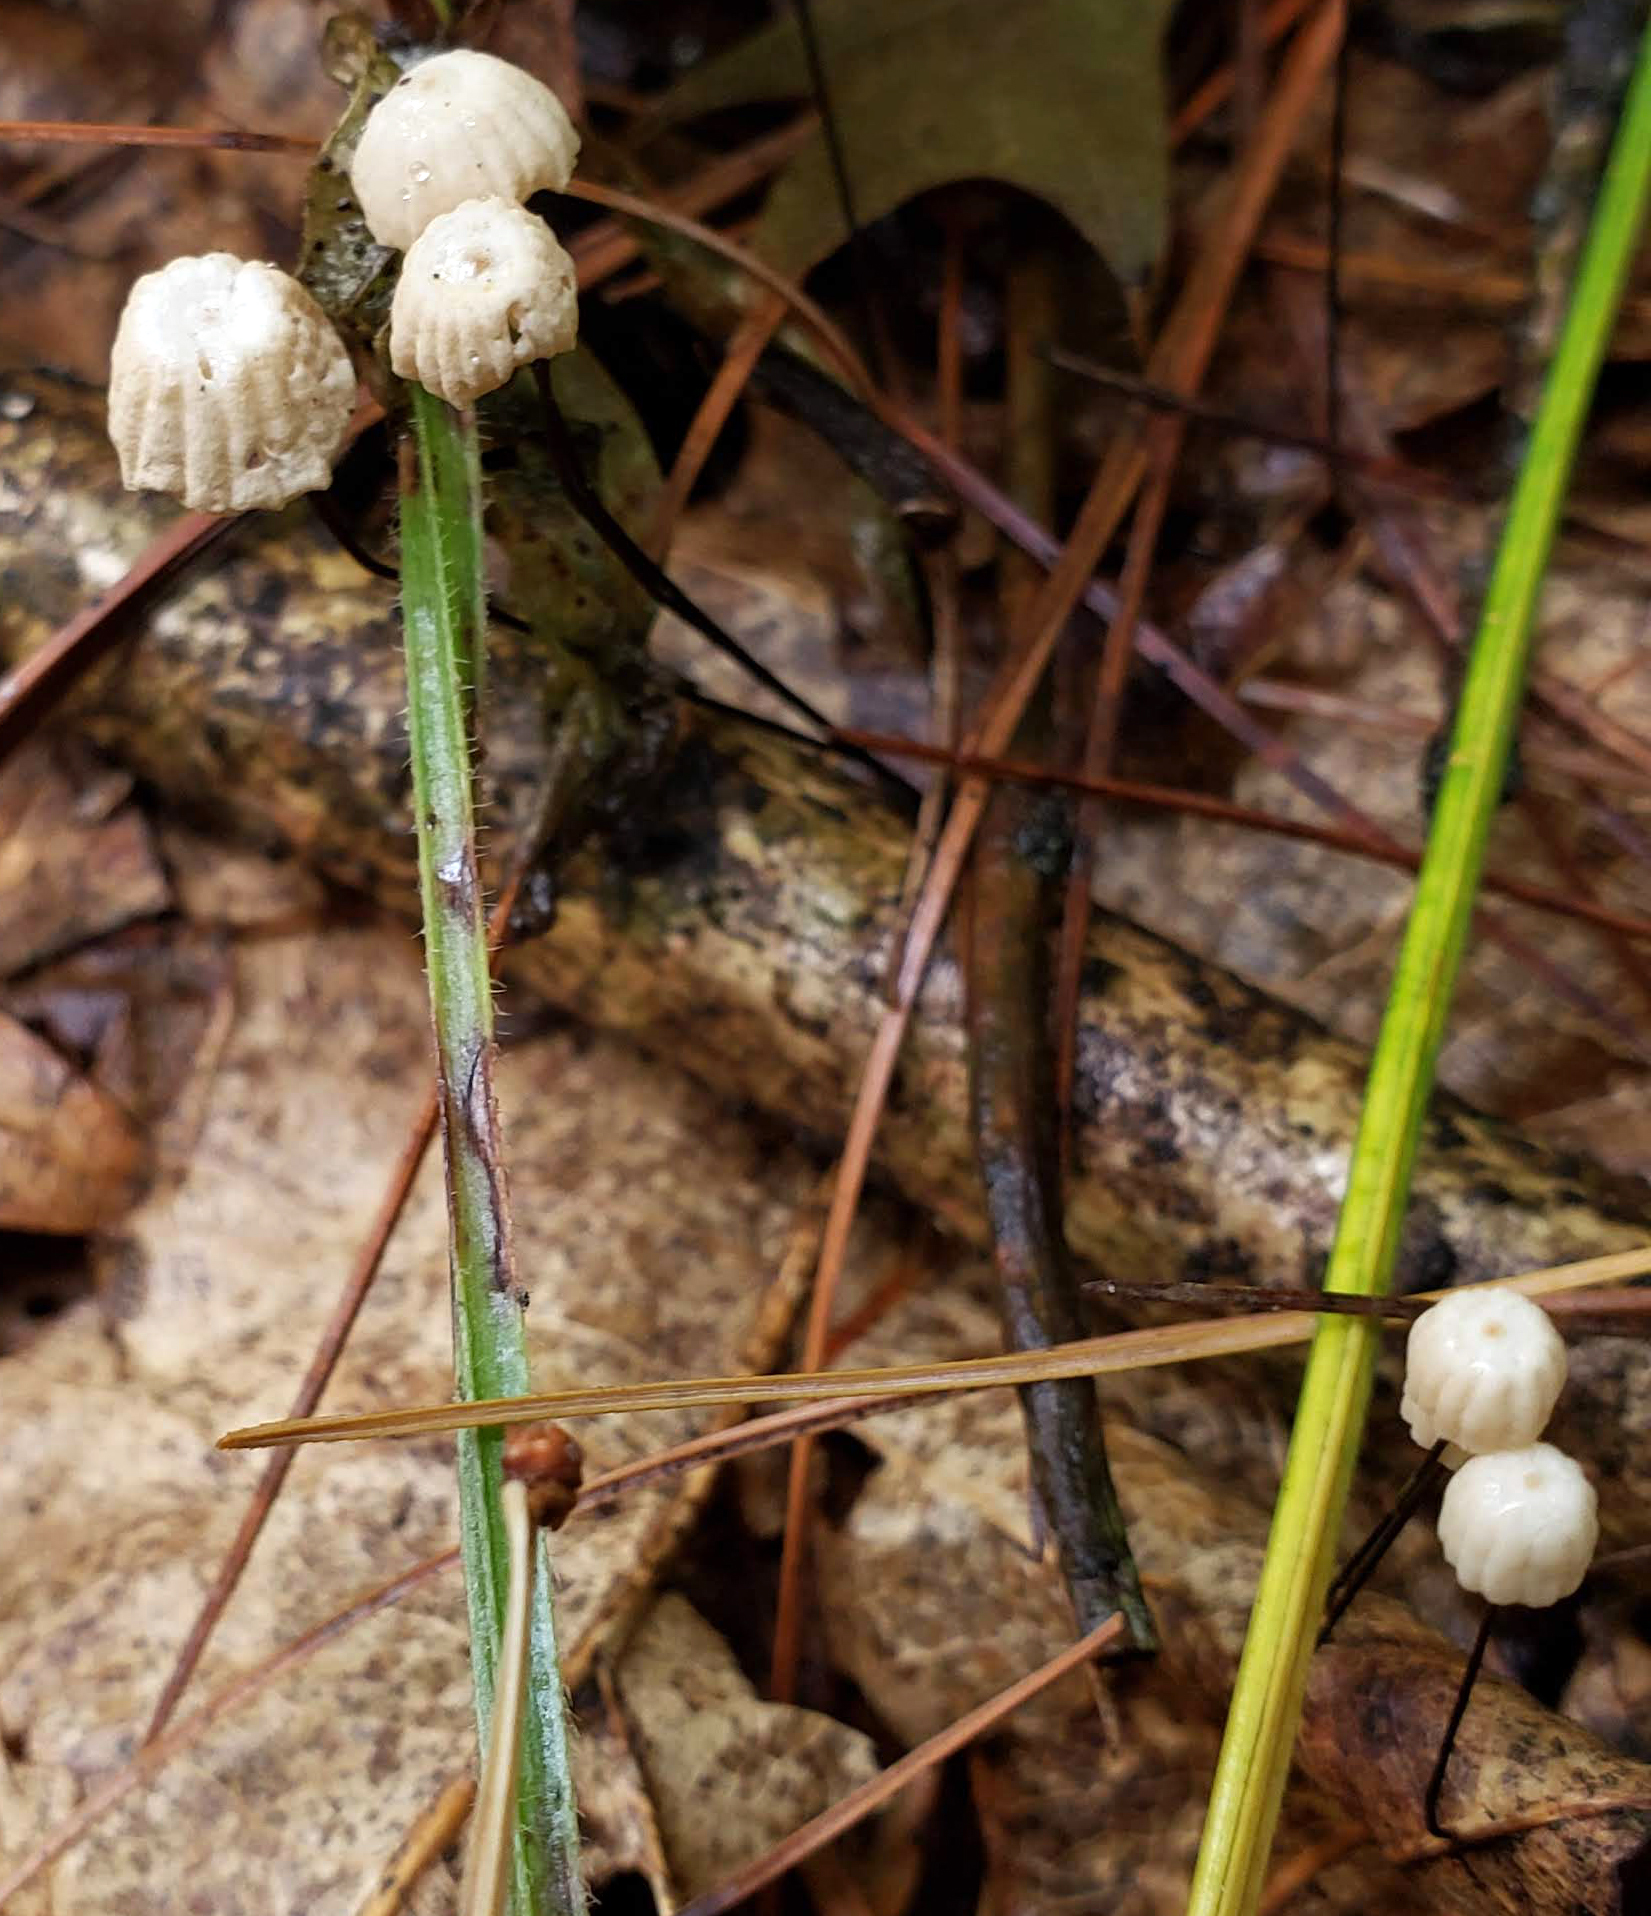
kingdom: Fungi
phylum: Basidiomycota
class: Agaricomycetes
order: Agaricales
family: Marasmiaceae
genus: Marasmius
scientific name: Marasmius capillaris
